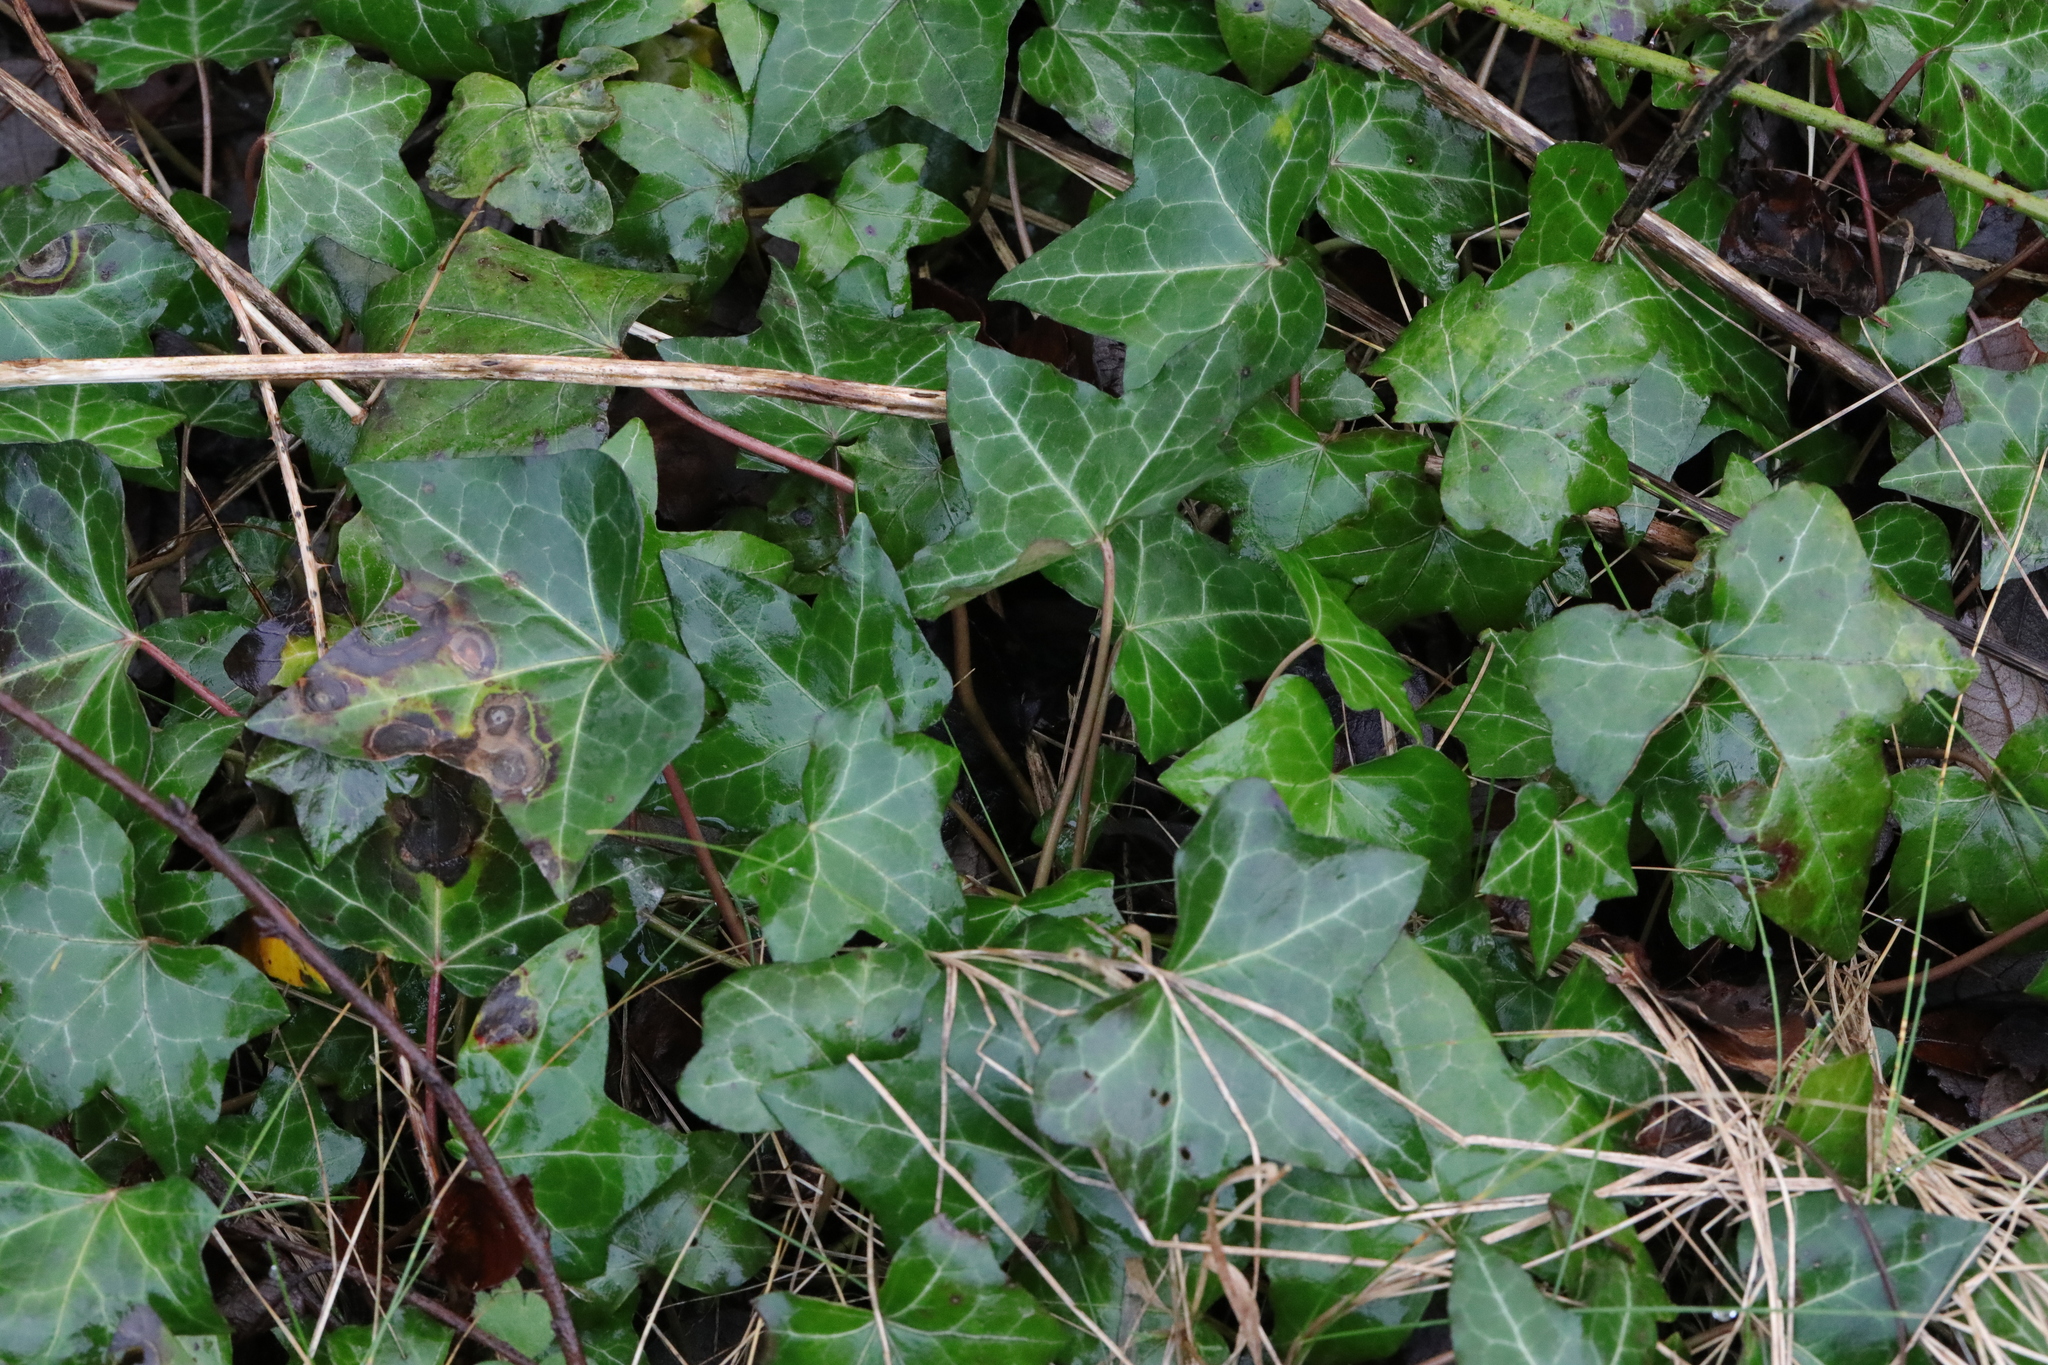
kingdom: Plantae
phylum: Tracheophyta
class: Magnoliopsida
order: Apiales
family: Araliaceae
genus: Hedera
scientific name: Hedera helix
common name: Ivy
